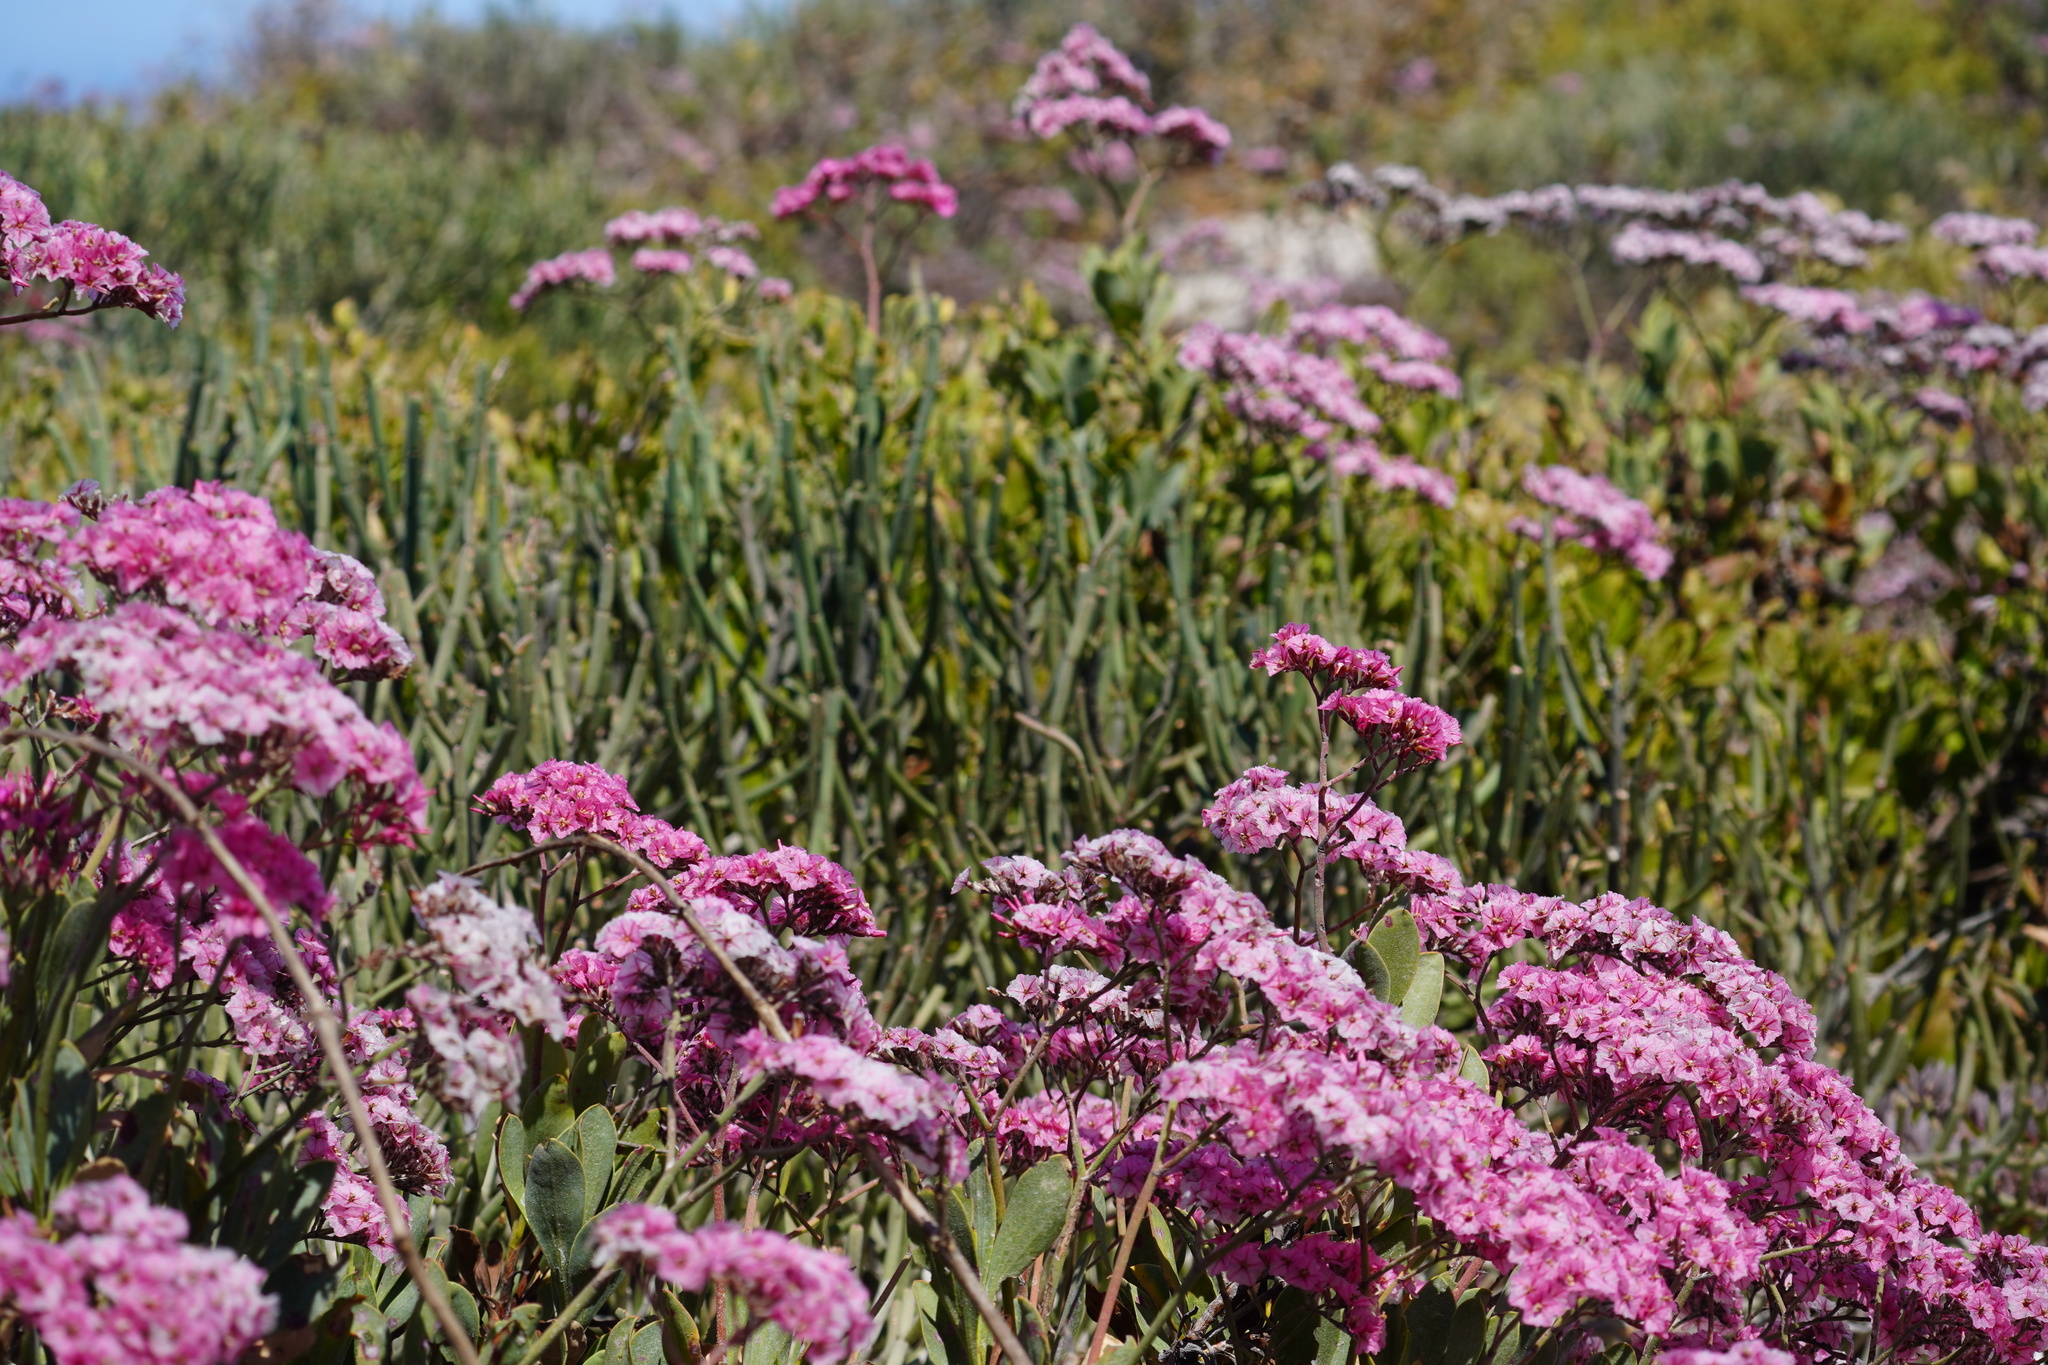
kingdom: Plantae
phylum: Tracheophyta
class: Magnoliopsida
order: Caryophyllales
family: Plumbaginaceae
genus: Limonium
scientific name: Limonium peregrinum
